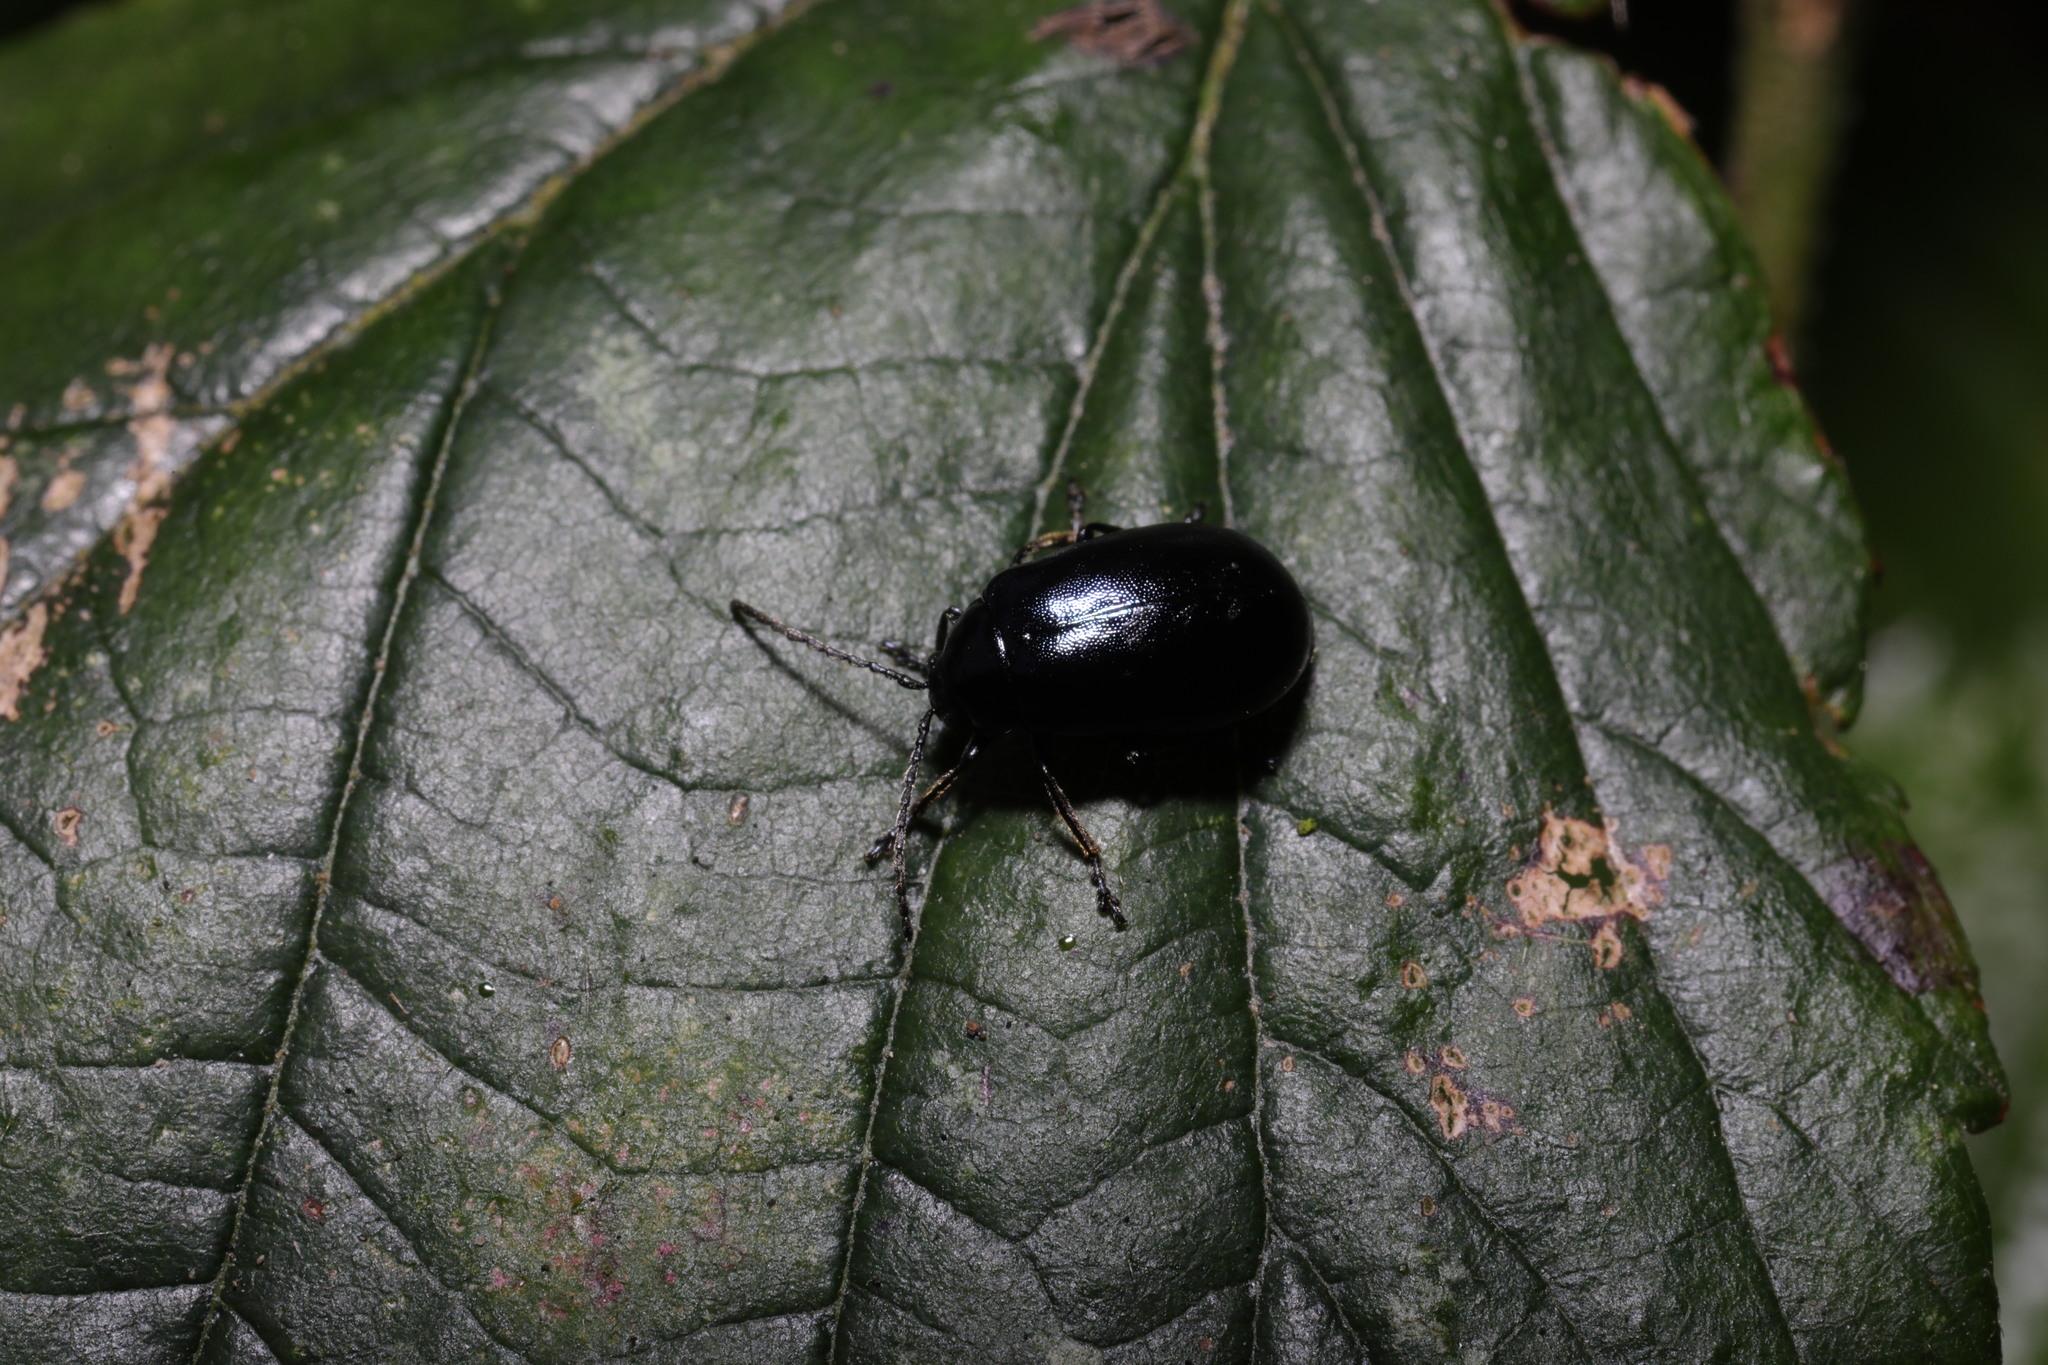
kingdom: Animalia
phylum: Arthropoda
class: Insecta
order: Coleoptera
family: Chrysomelidae
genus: Agelastica
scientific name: Agelastica alni
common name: Alder leaf beetle
